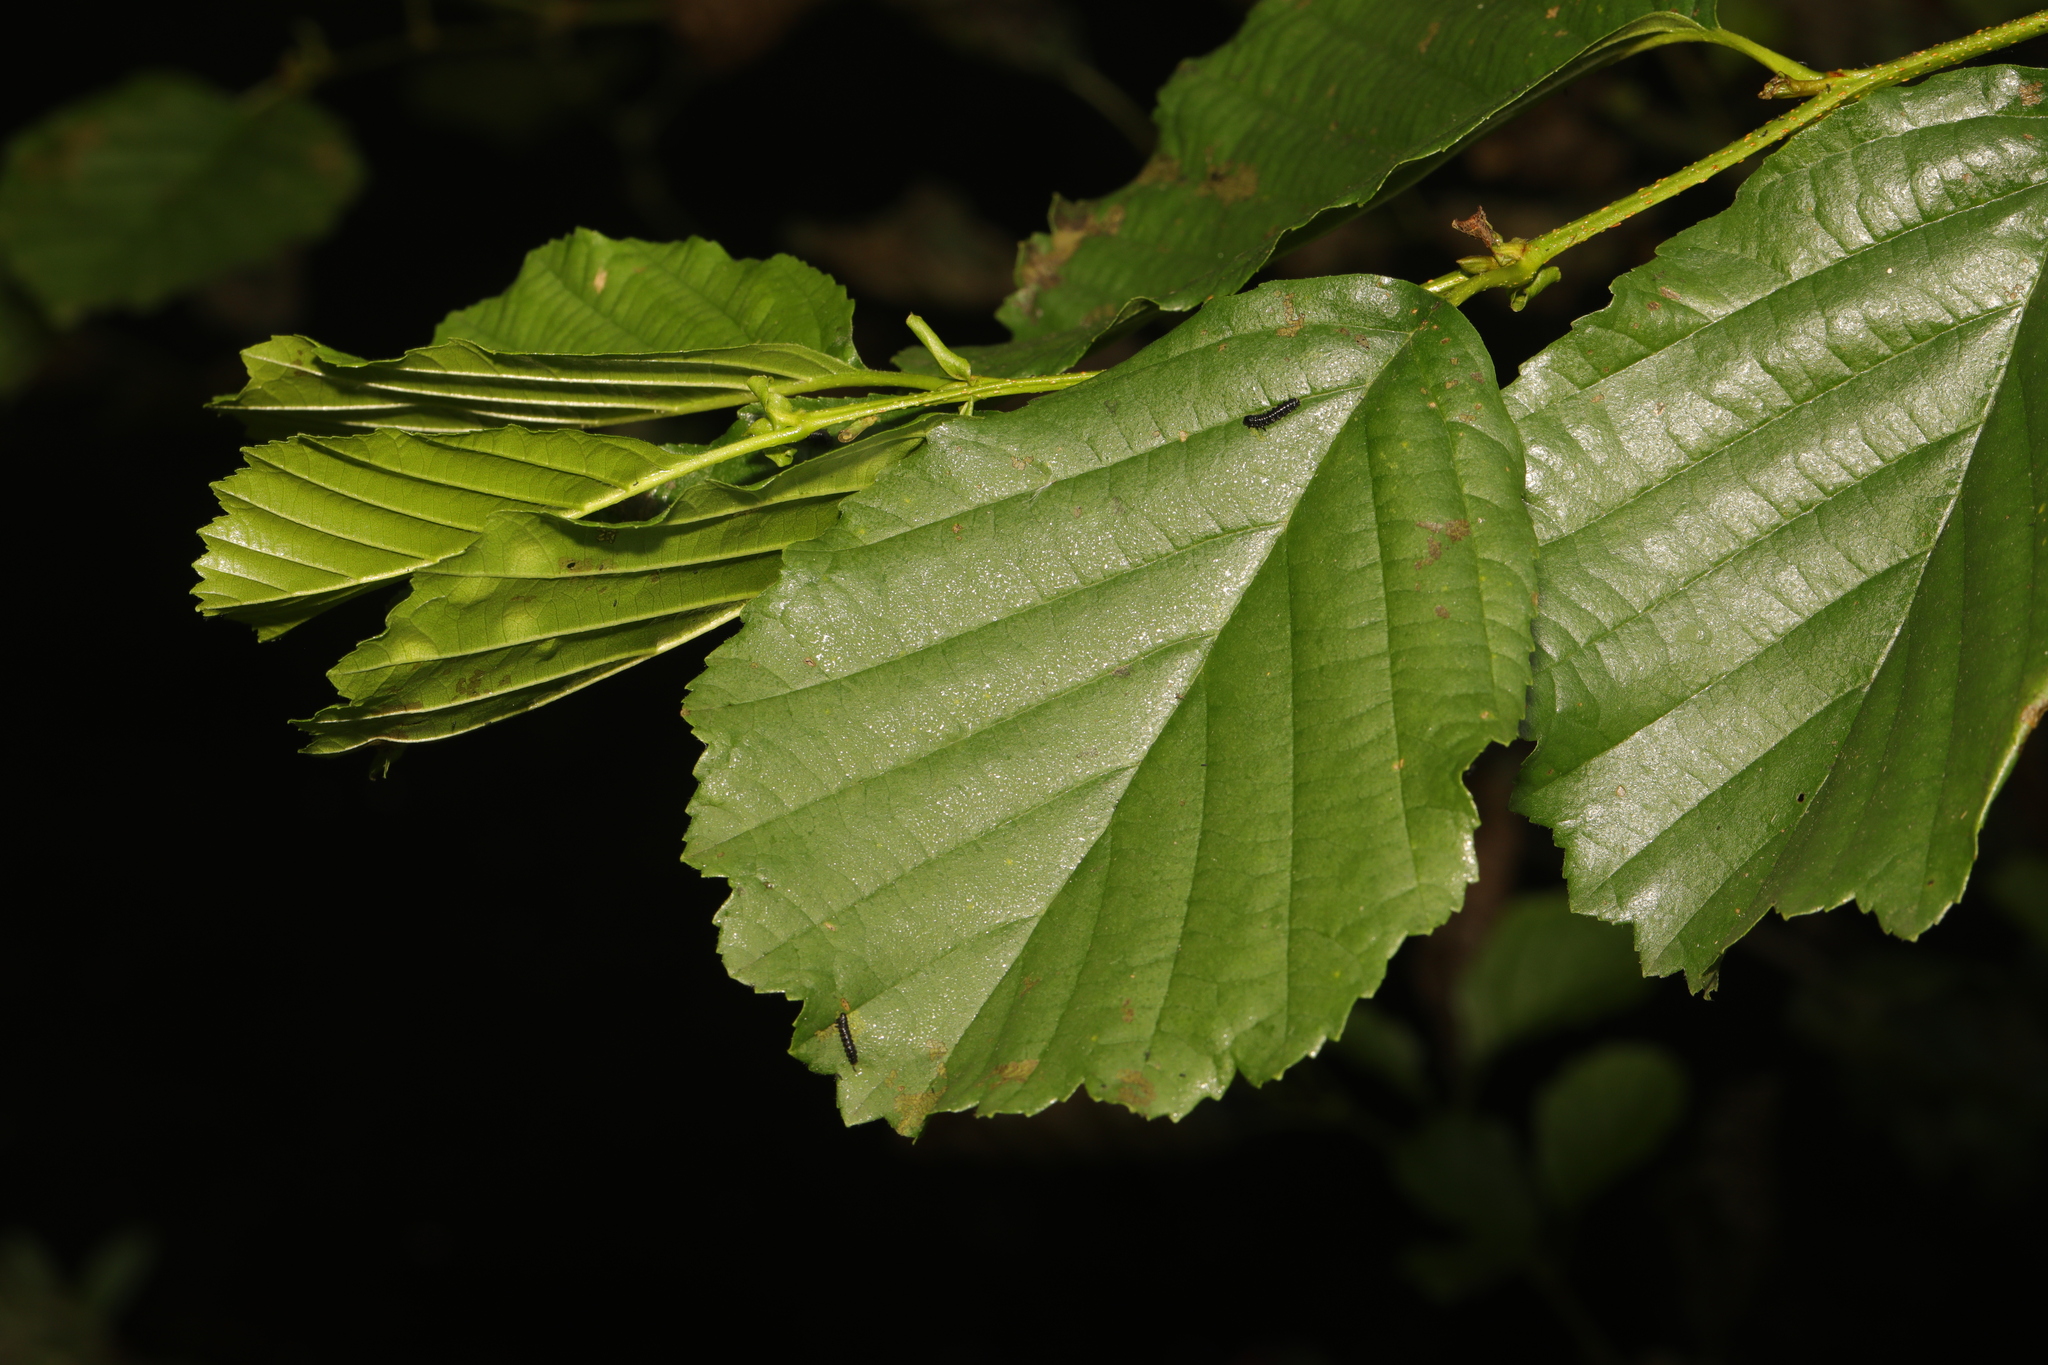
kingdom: Plantae
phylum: Tracheophyta
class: Magnoliopsida
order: Fagales
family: Betulaceae
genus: Alnus
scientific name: Alnus glutinosa
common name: Black alder
